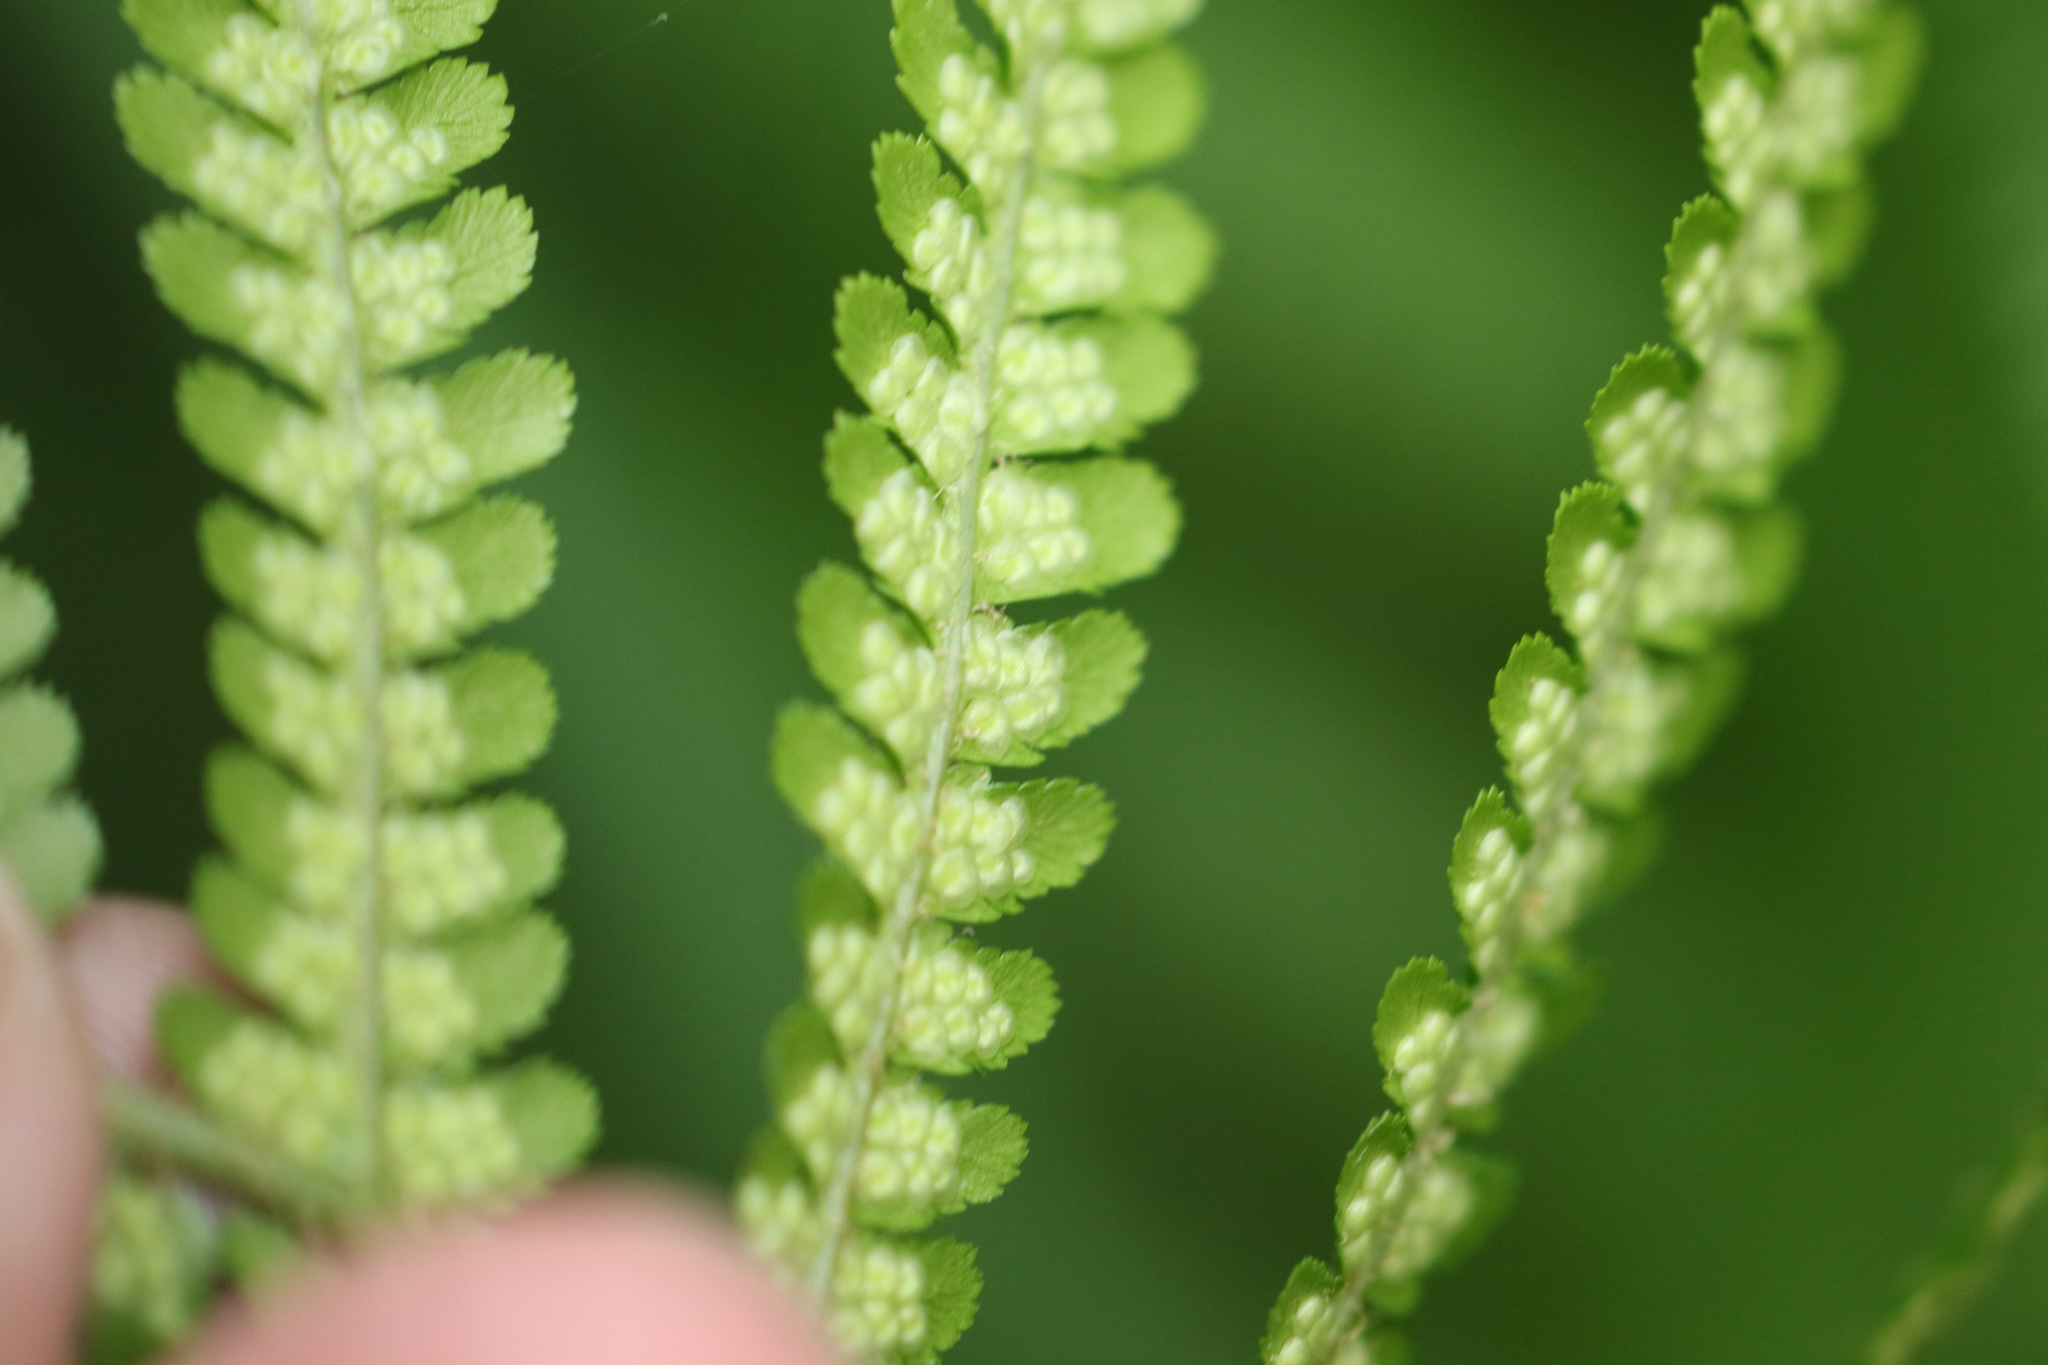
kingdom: Plantae
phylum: Tracheophyta
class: Polypodiopsida
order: Polypodiales
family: Dryopteridaceae
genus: Dryopteris
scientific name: Dryopteris filix-mas
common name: Male fern
